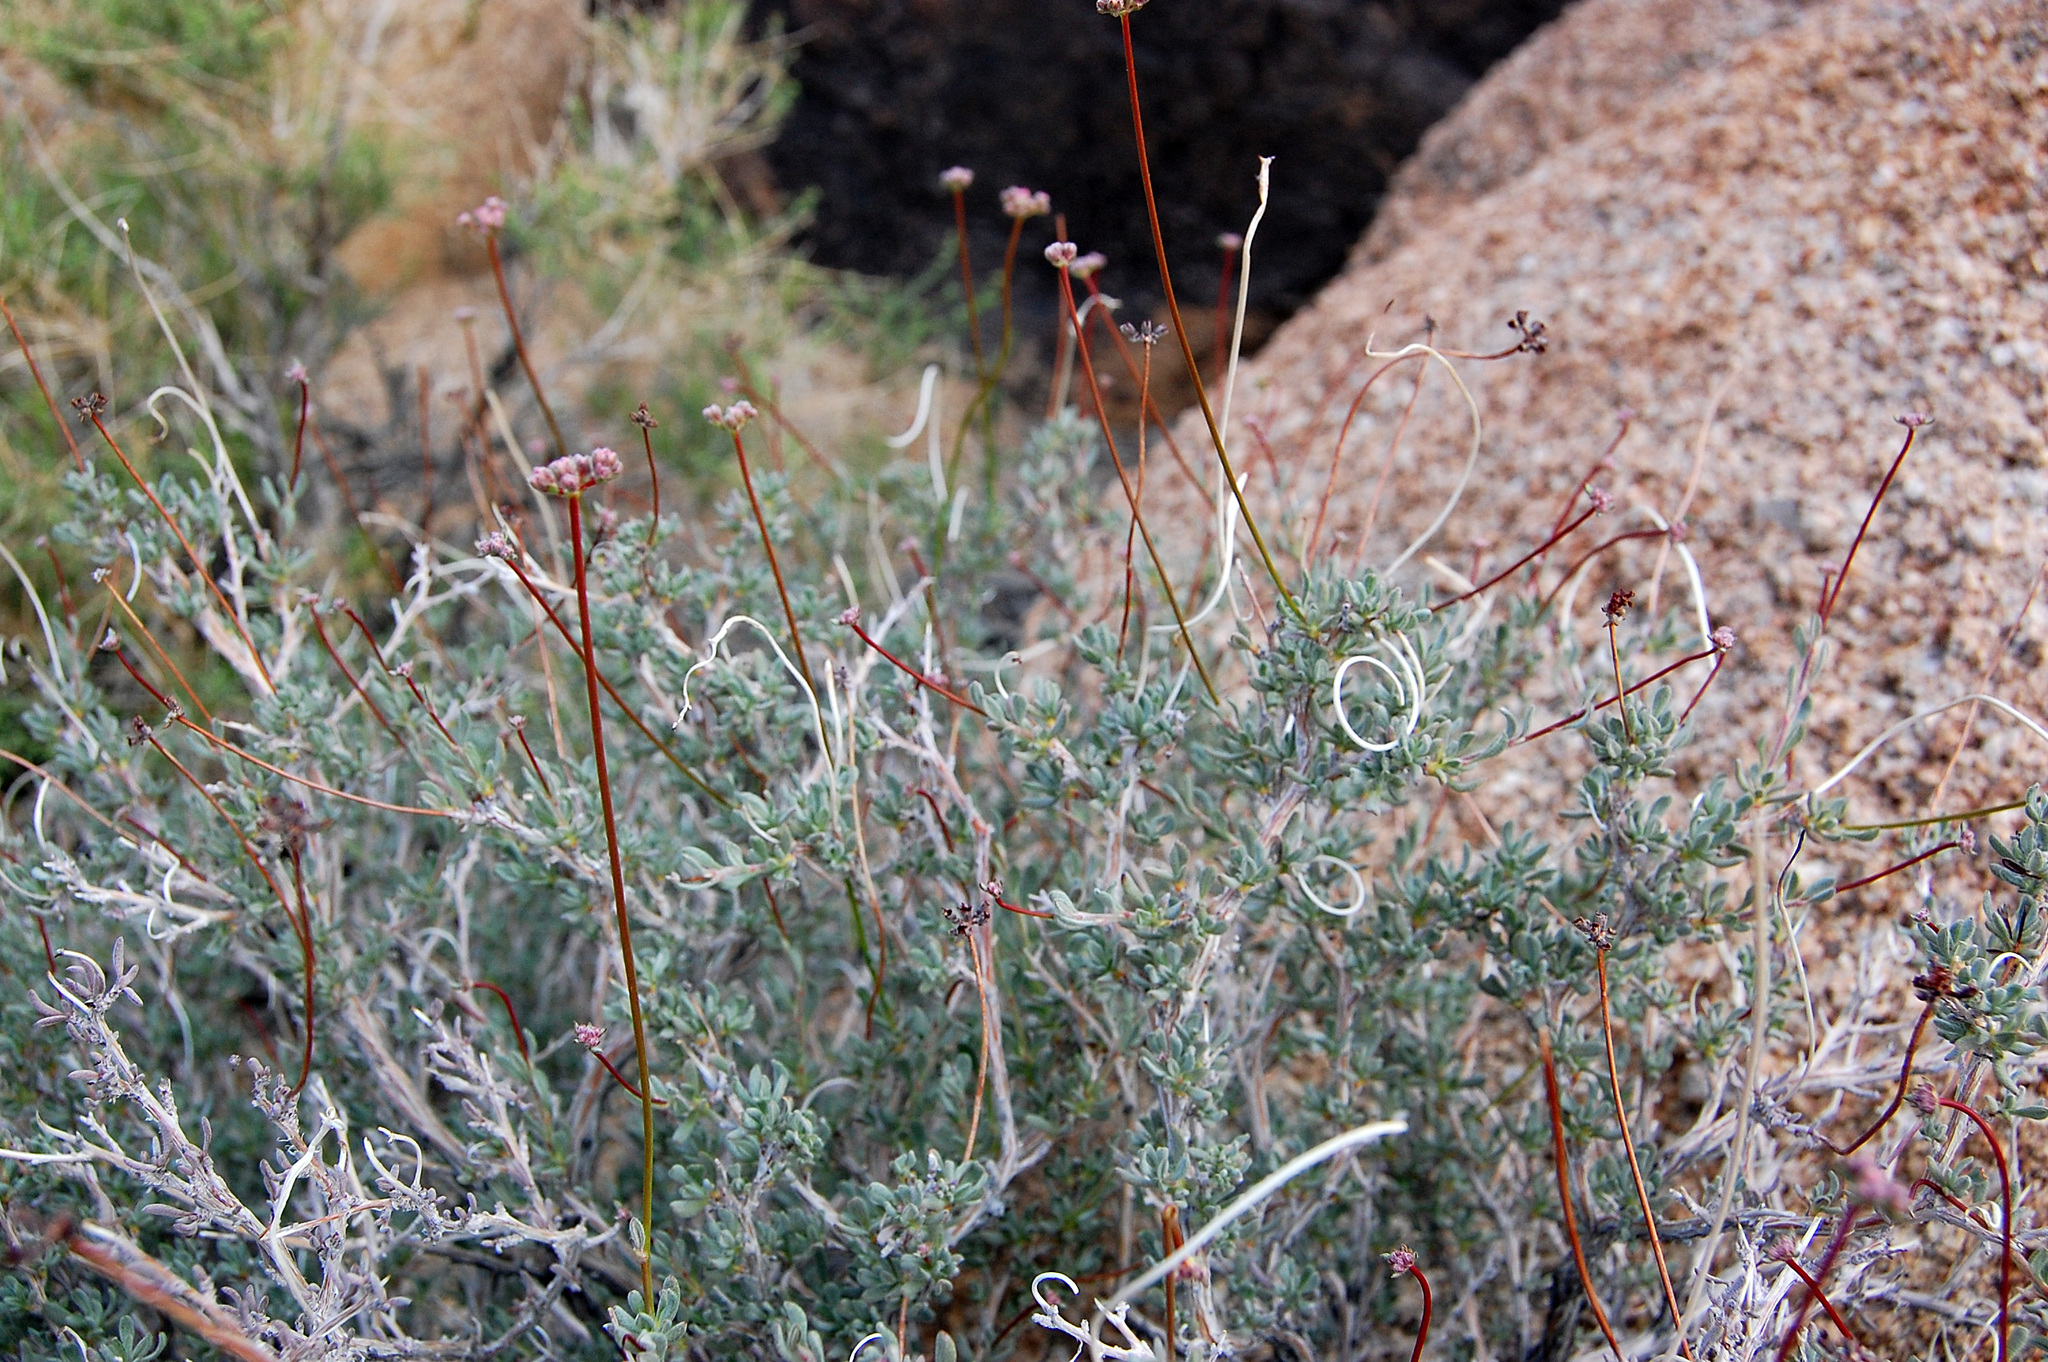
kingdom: Plantae
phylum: Tracheophyta
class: Magnoliopsida
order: Caryophyllales
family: Polygonaceae
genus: Eriogonum
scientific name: Eriogonum fasciculatum
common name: California wild buckwheat
